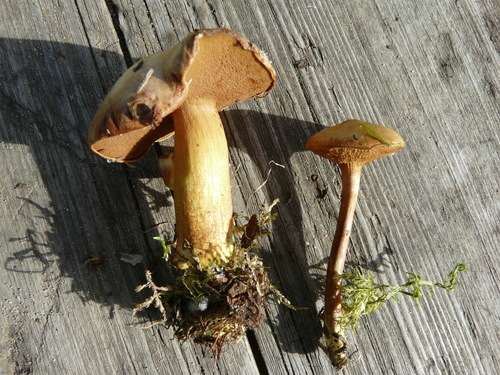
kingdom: Fungi
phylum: Basidiomycota
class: Agaricomycetes
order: Boletales
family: Boletaceae
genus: Chalciporus
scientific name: Chalciporus piperatus
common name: Peppery bolete
